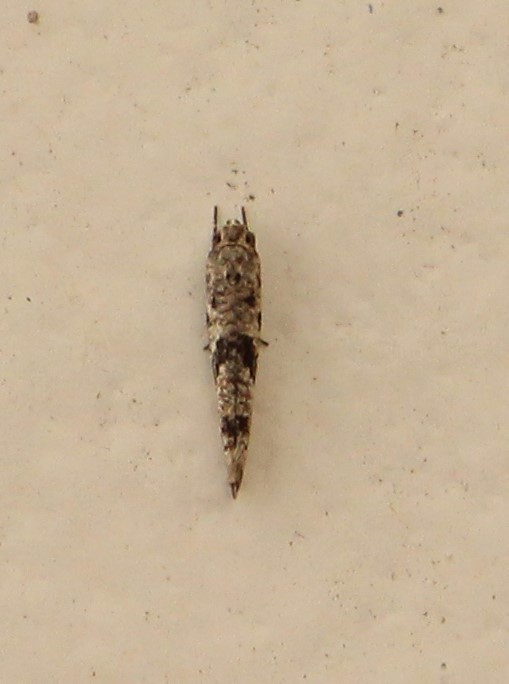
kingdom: Animalia
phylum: Arthropoda
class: Insecta
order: Lepidoptera
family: Praydidae
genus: Prays
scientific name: Prays nephelomima
